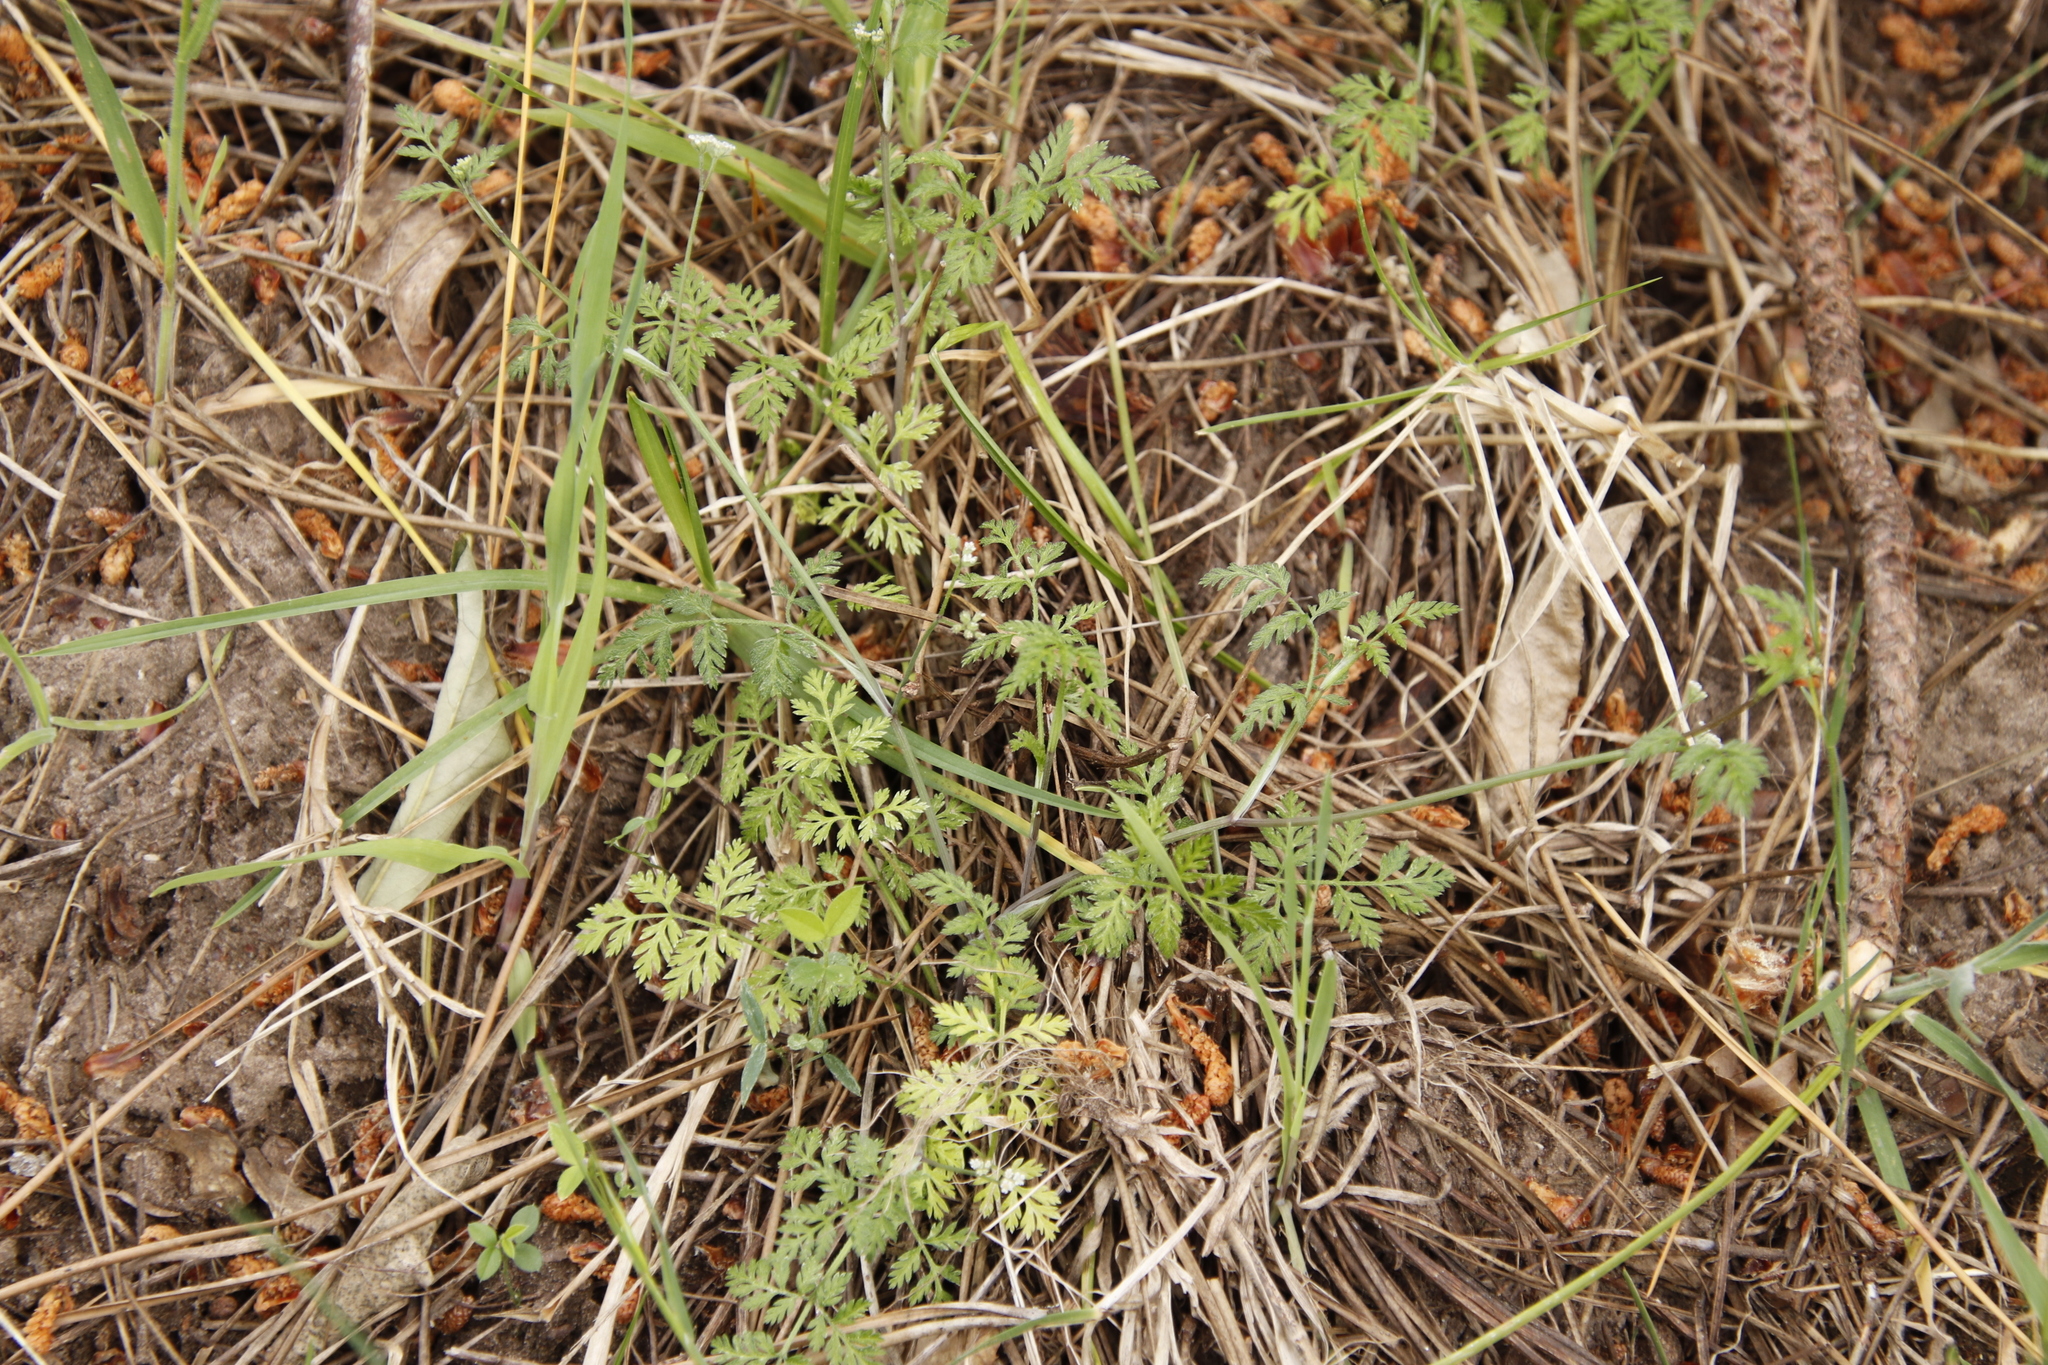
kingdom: Plantae
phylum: Tracheophyta
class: Magnoliopsida
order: Apiales
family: Apiaceae
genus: Torilis
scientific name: Torilis arvensis
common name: Spreading hedge-parsley
